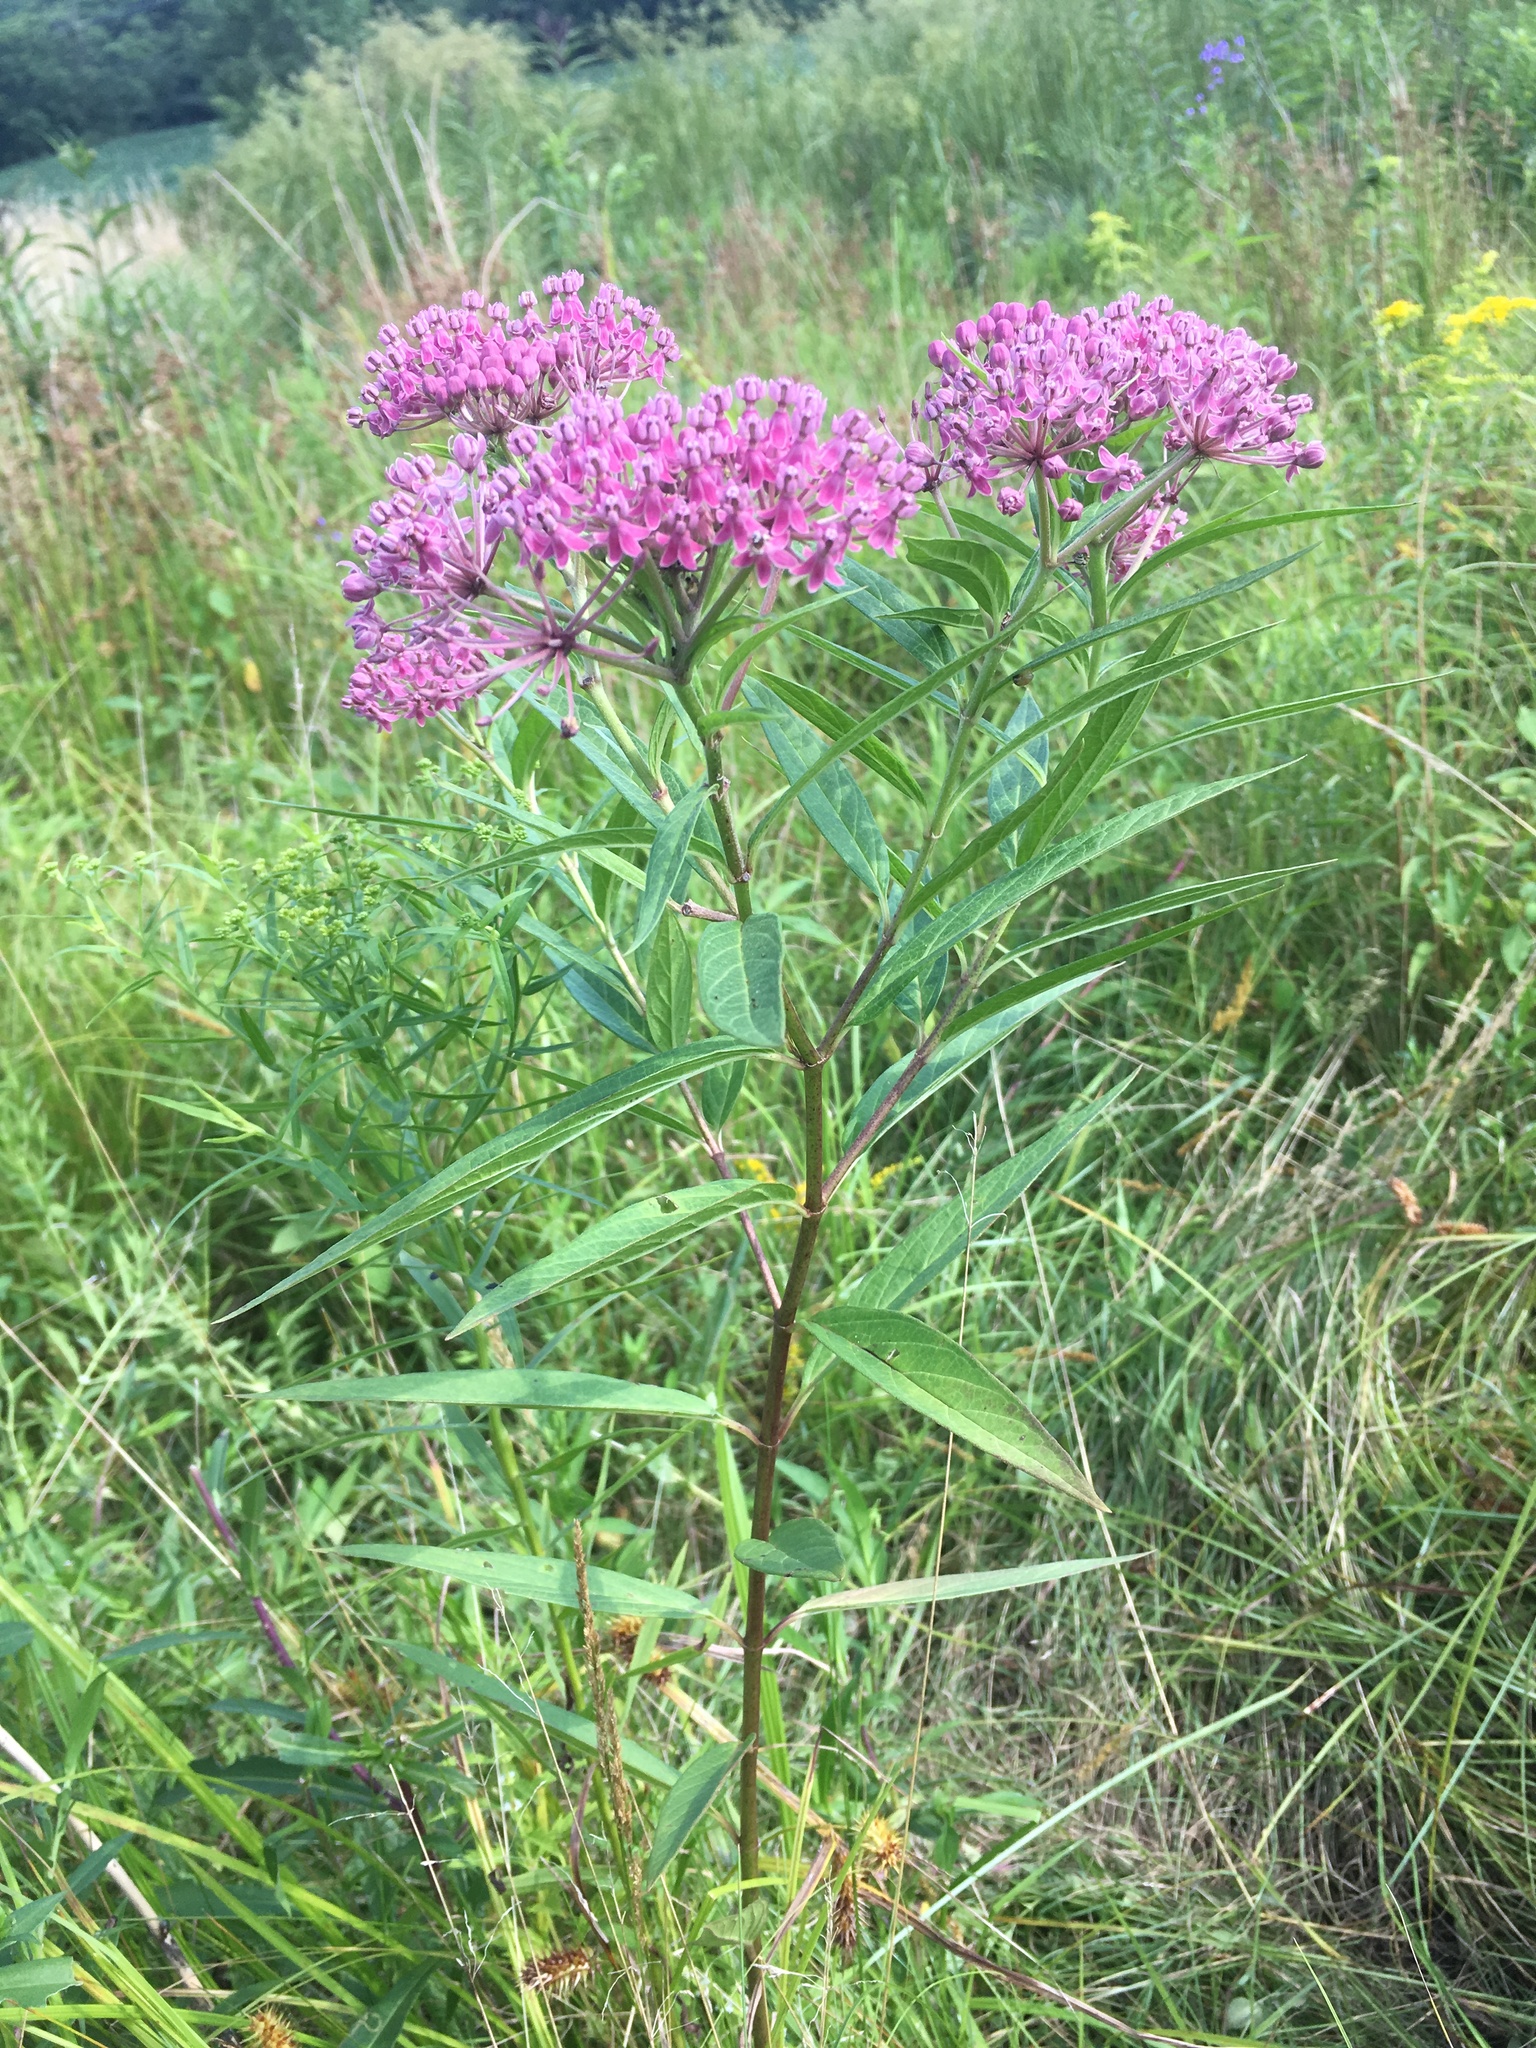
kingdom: Plantae
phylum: Tracheophyta
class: Magnoliopsida
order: Gentianales
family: Apocynaceae
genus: Asclepias
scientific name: Asclepias incarnata
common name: Swamp milkweed
